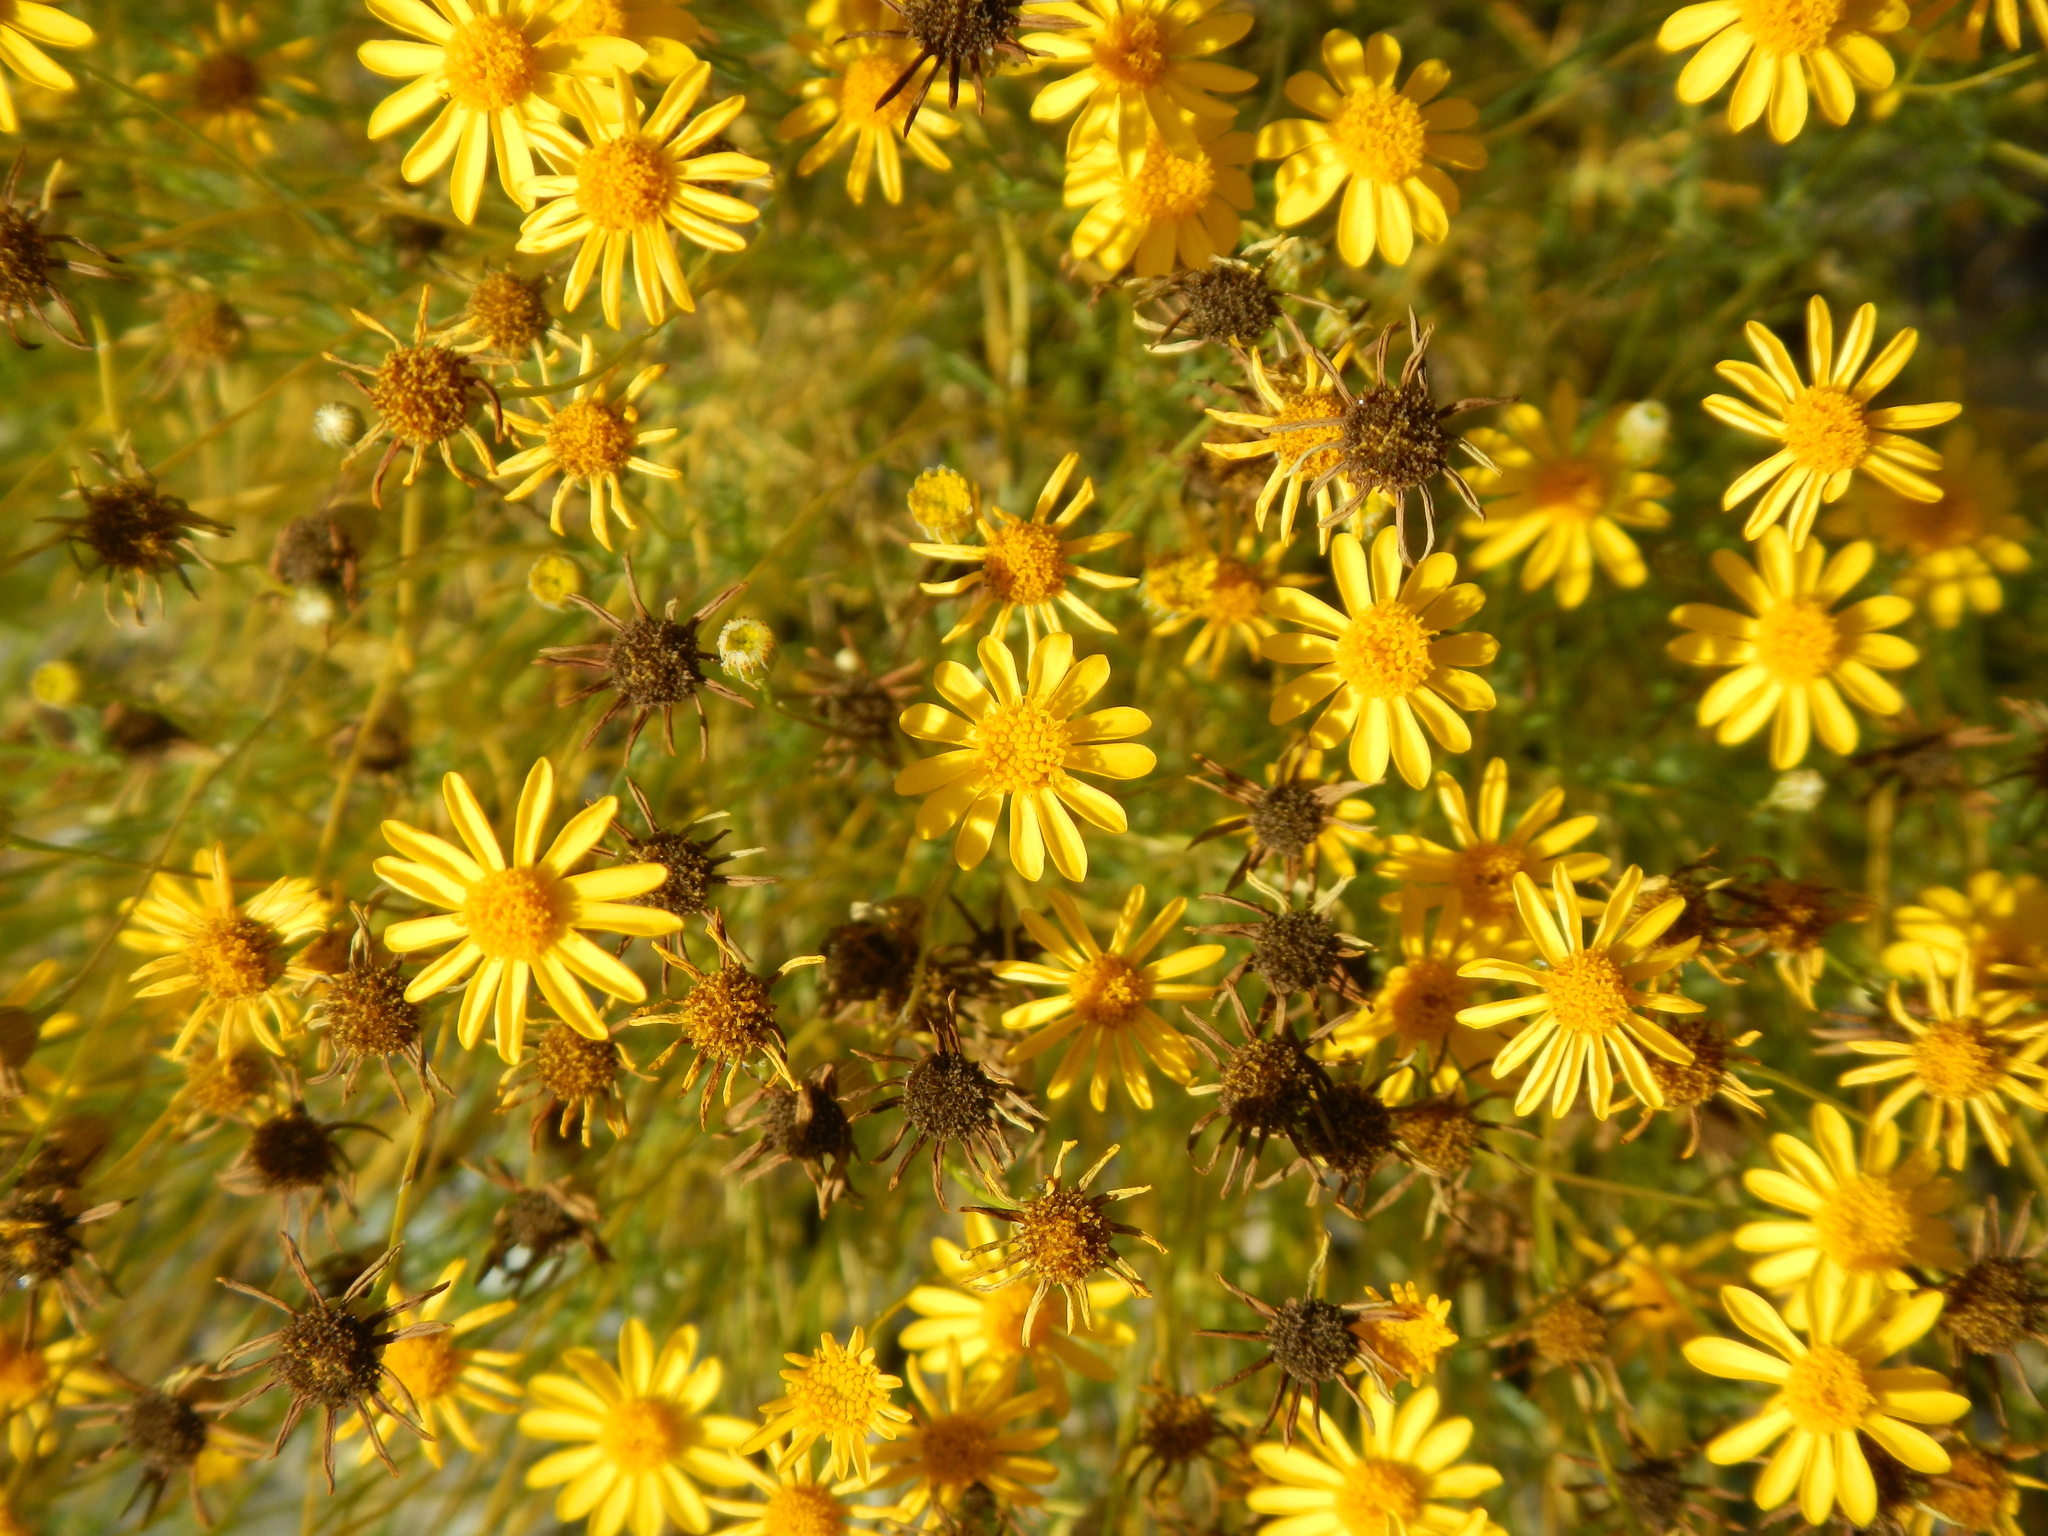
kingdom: Plantae
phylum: Tracheophyta
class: Magnoliopsida
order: Asterales
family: Asteraceae
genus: Thymophylla
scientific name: Thymophylla pentachaeta
